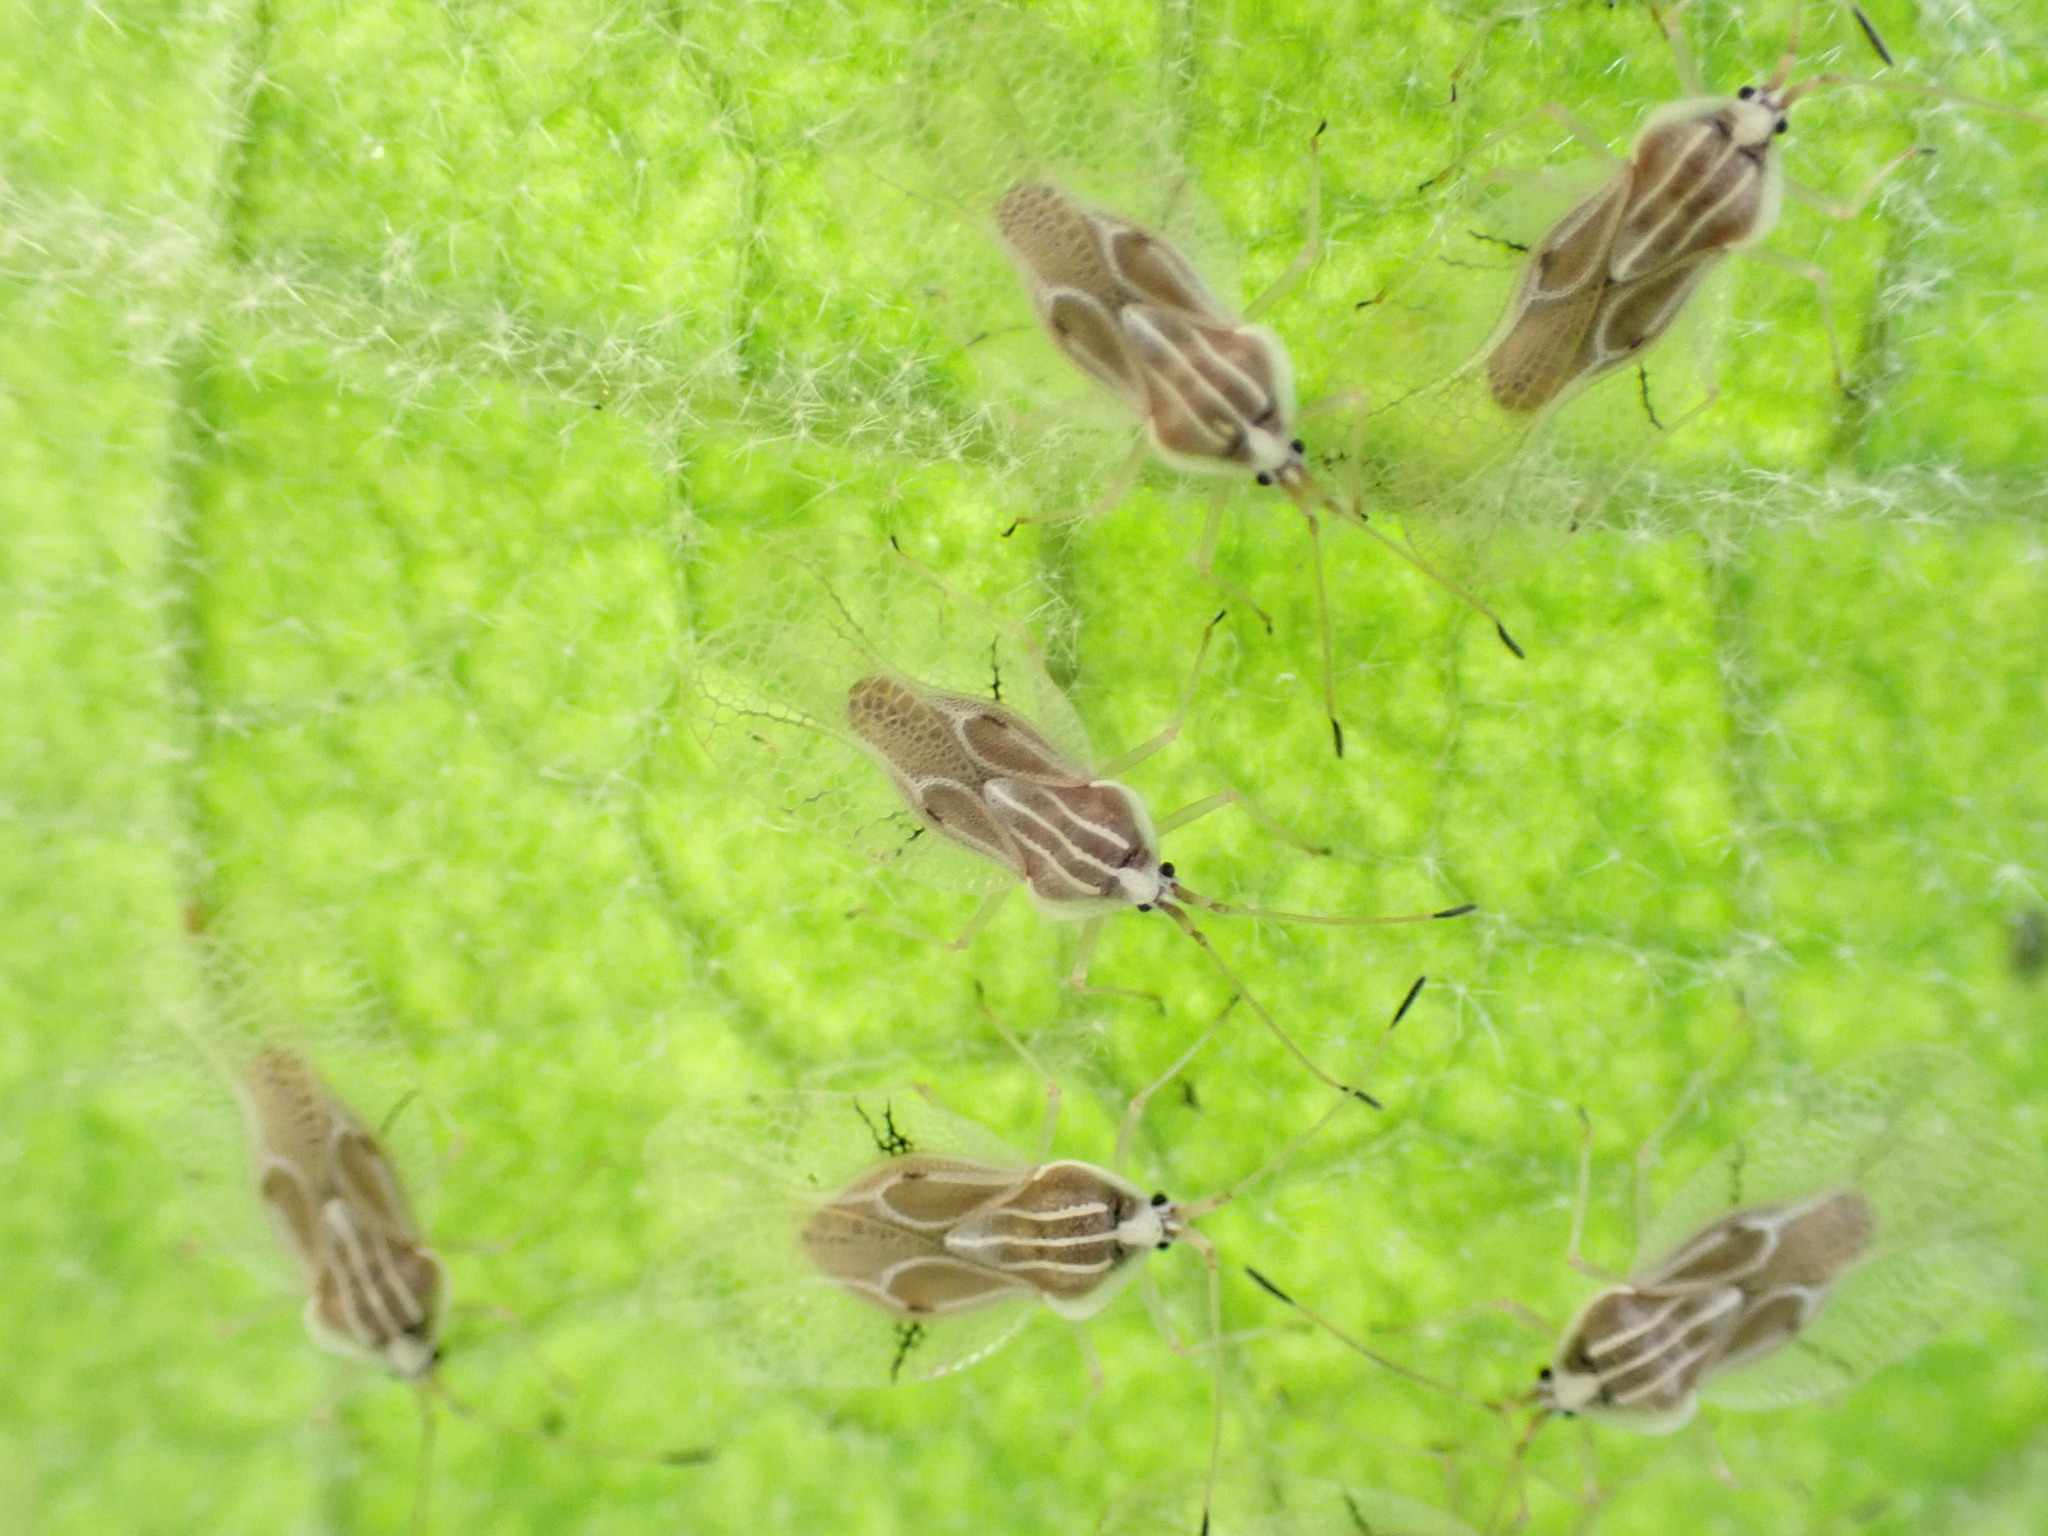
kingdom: Animalia
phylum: Arthropoda
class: Insecta
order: Hemiptera
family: Tingidae
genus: Gargaphia
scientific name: Gargaphia decoris
